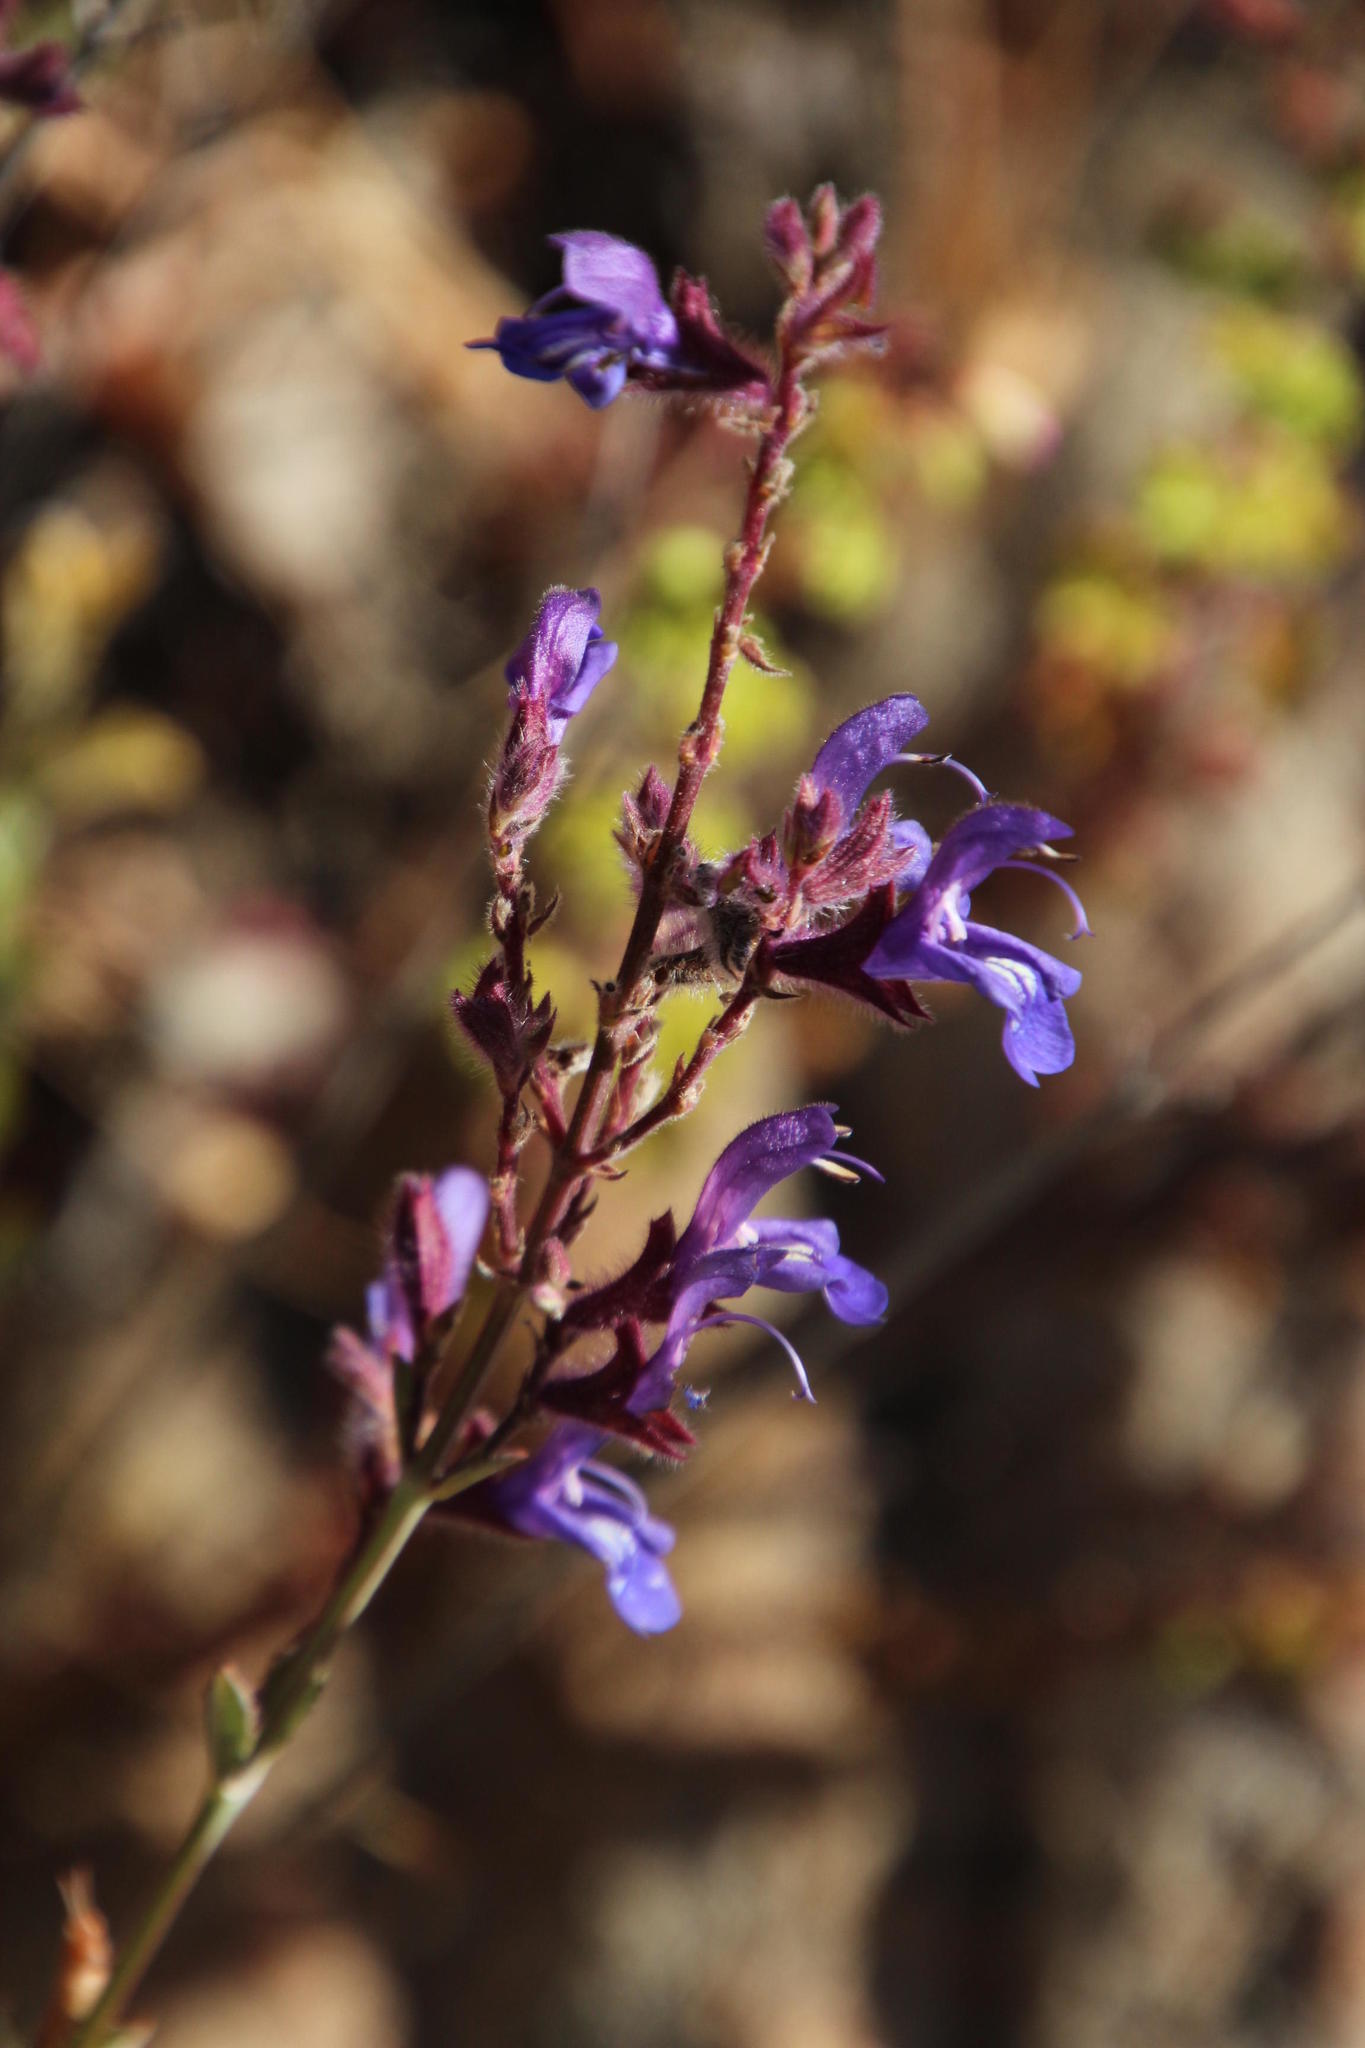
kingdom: Plantae
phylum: Tracheophyta
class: Magnoliopsida
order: Lamiales
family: Lamiaceae
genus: Salvia
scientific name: Salvia albicaulis
